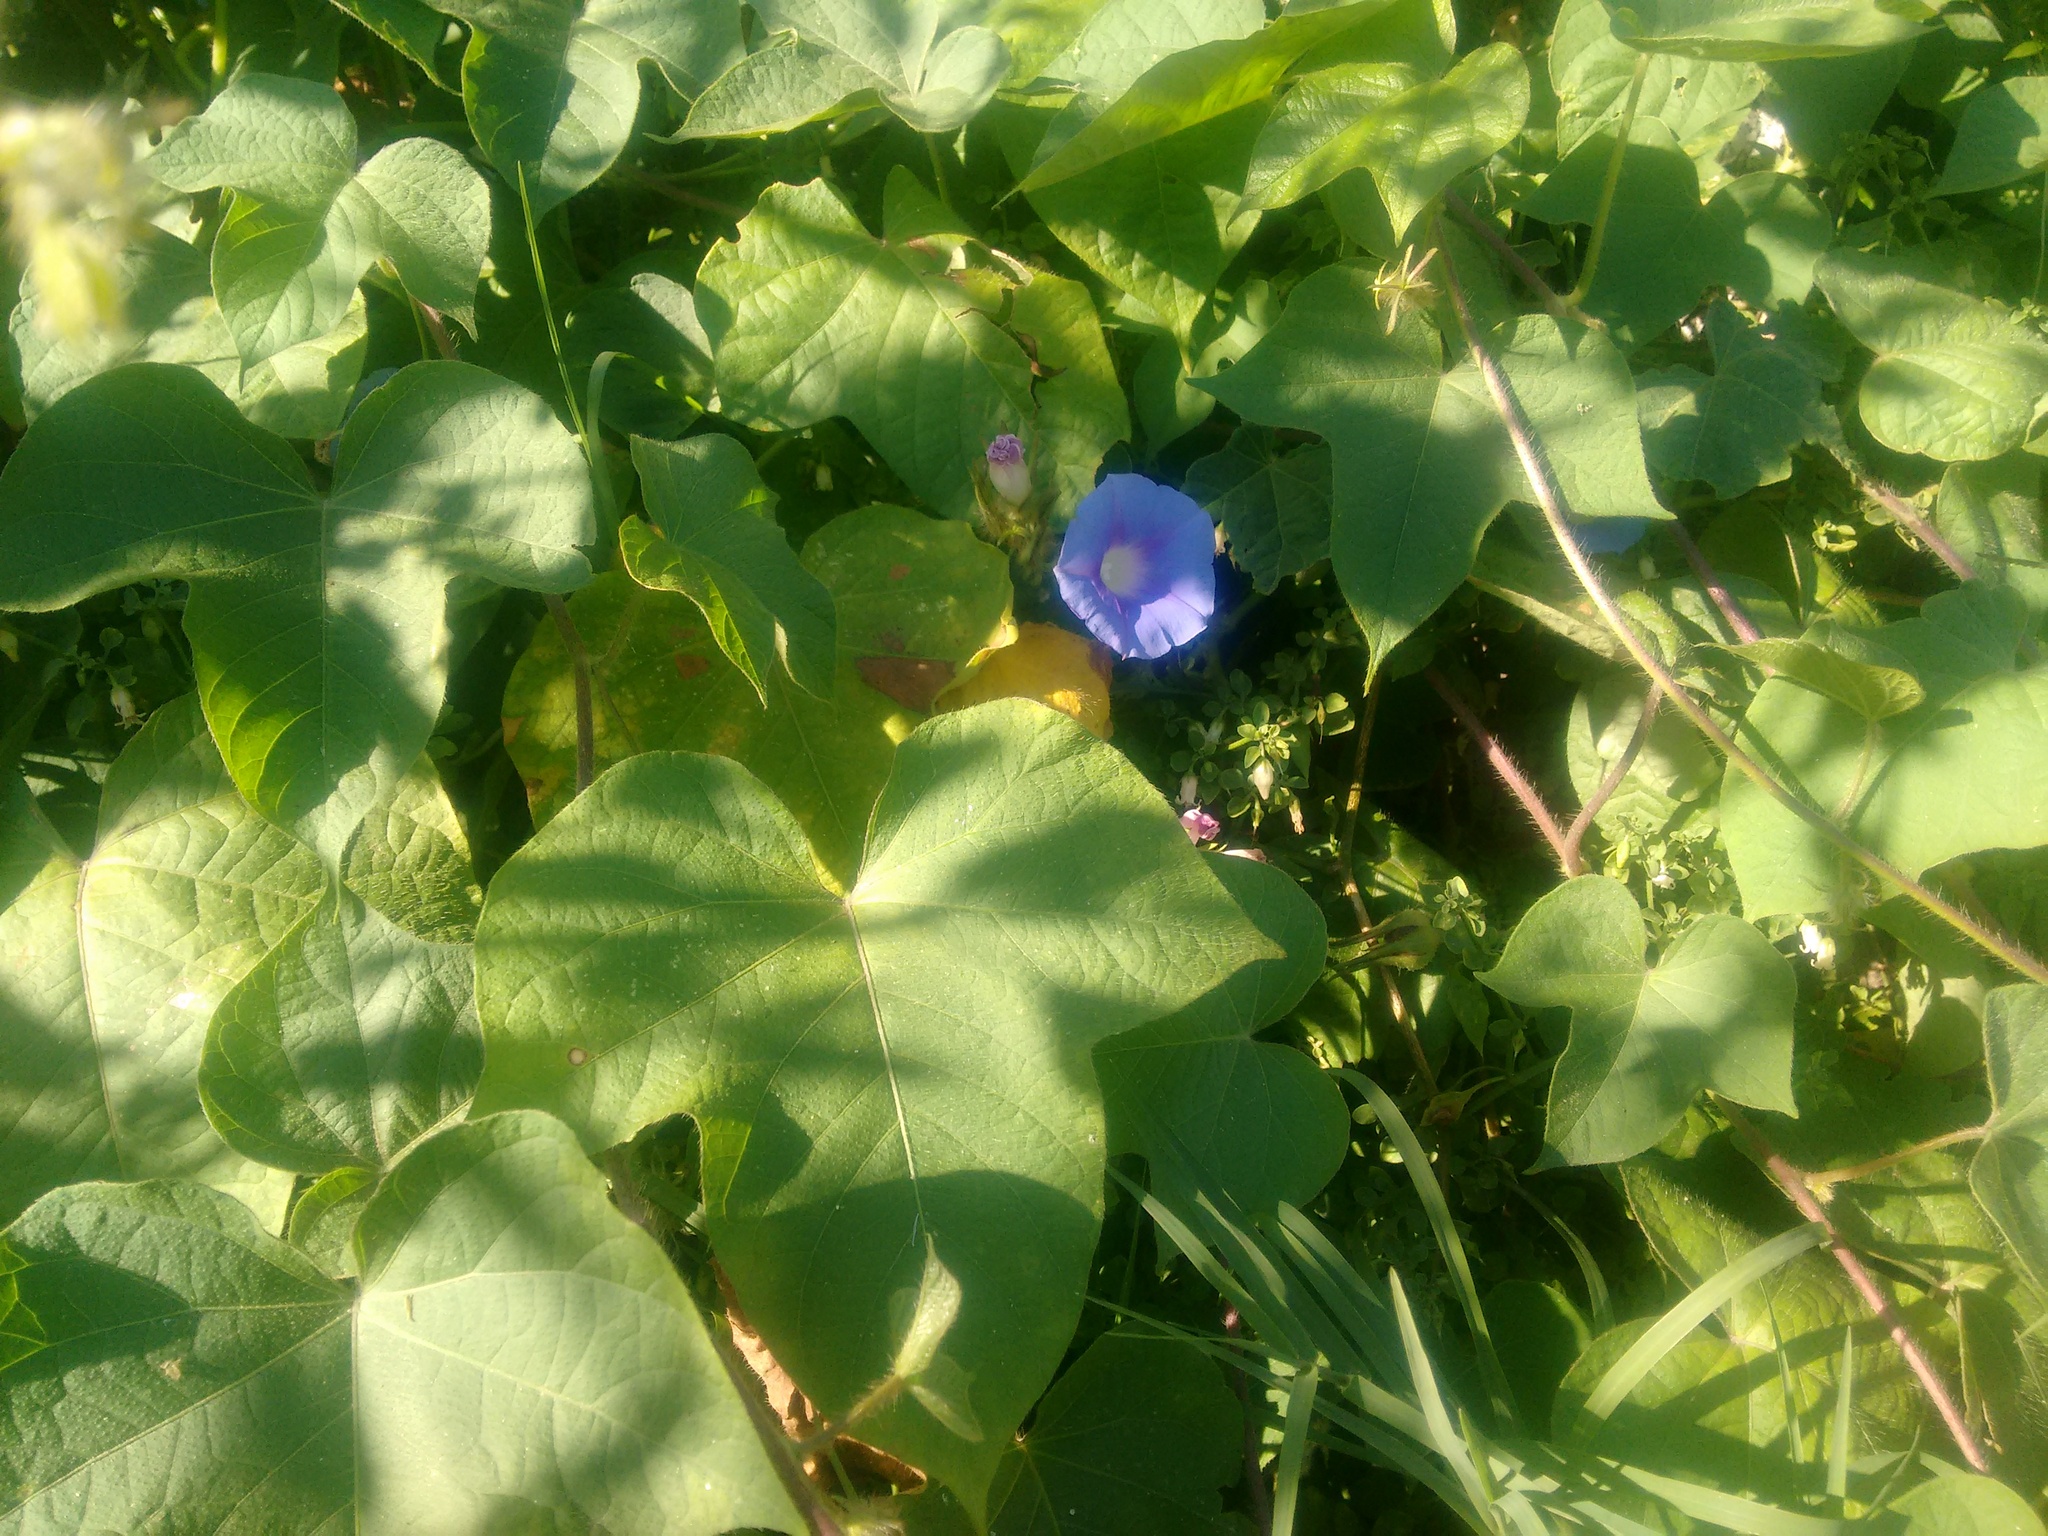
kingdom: Plantae
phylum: Tracheophyta
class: Magnoliopsida
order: Solanales
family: Convolvulaceae
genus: Ipomoea
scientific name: Ipomoea nil
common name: Japanese morning-glory
